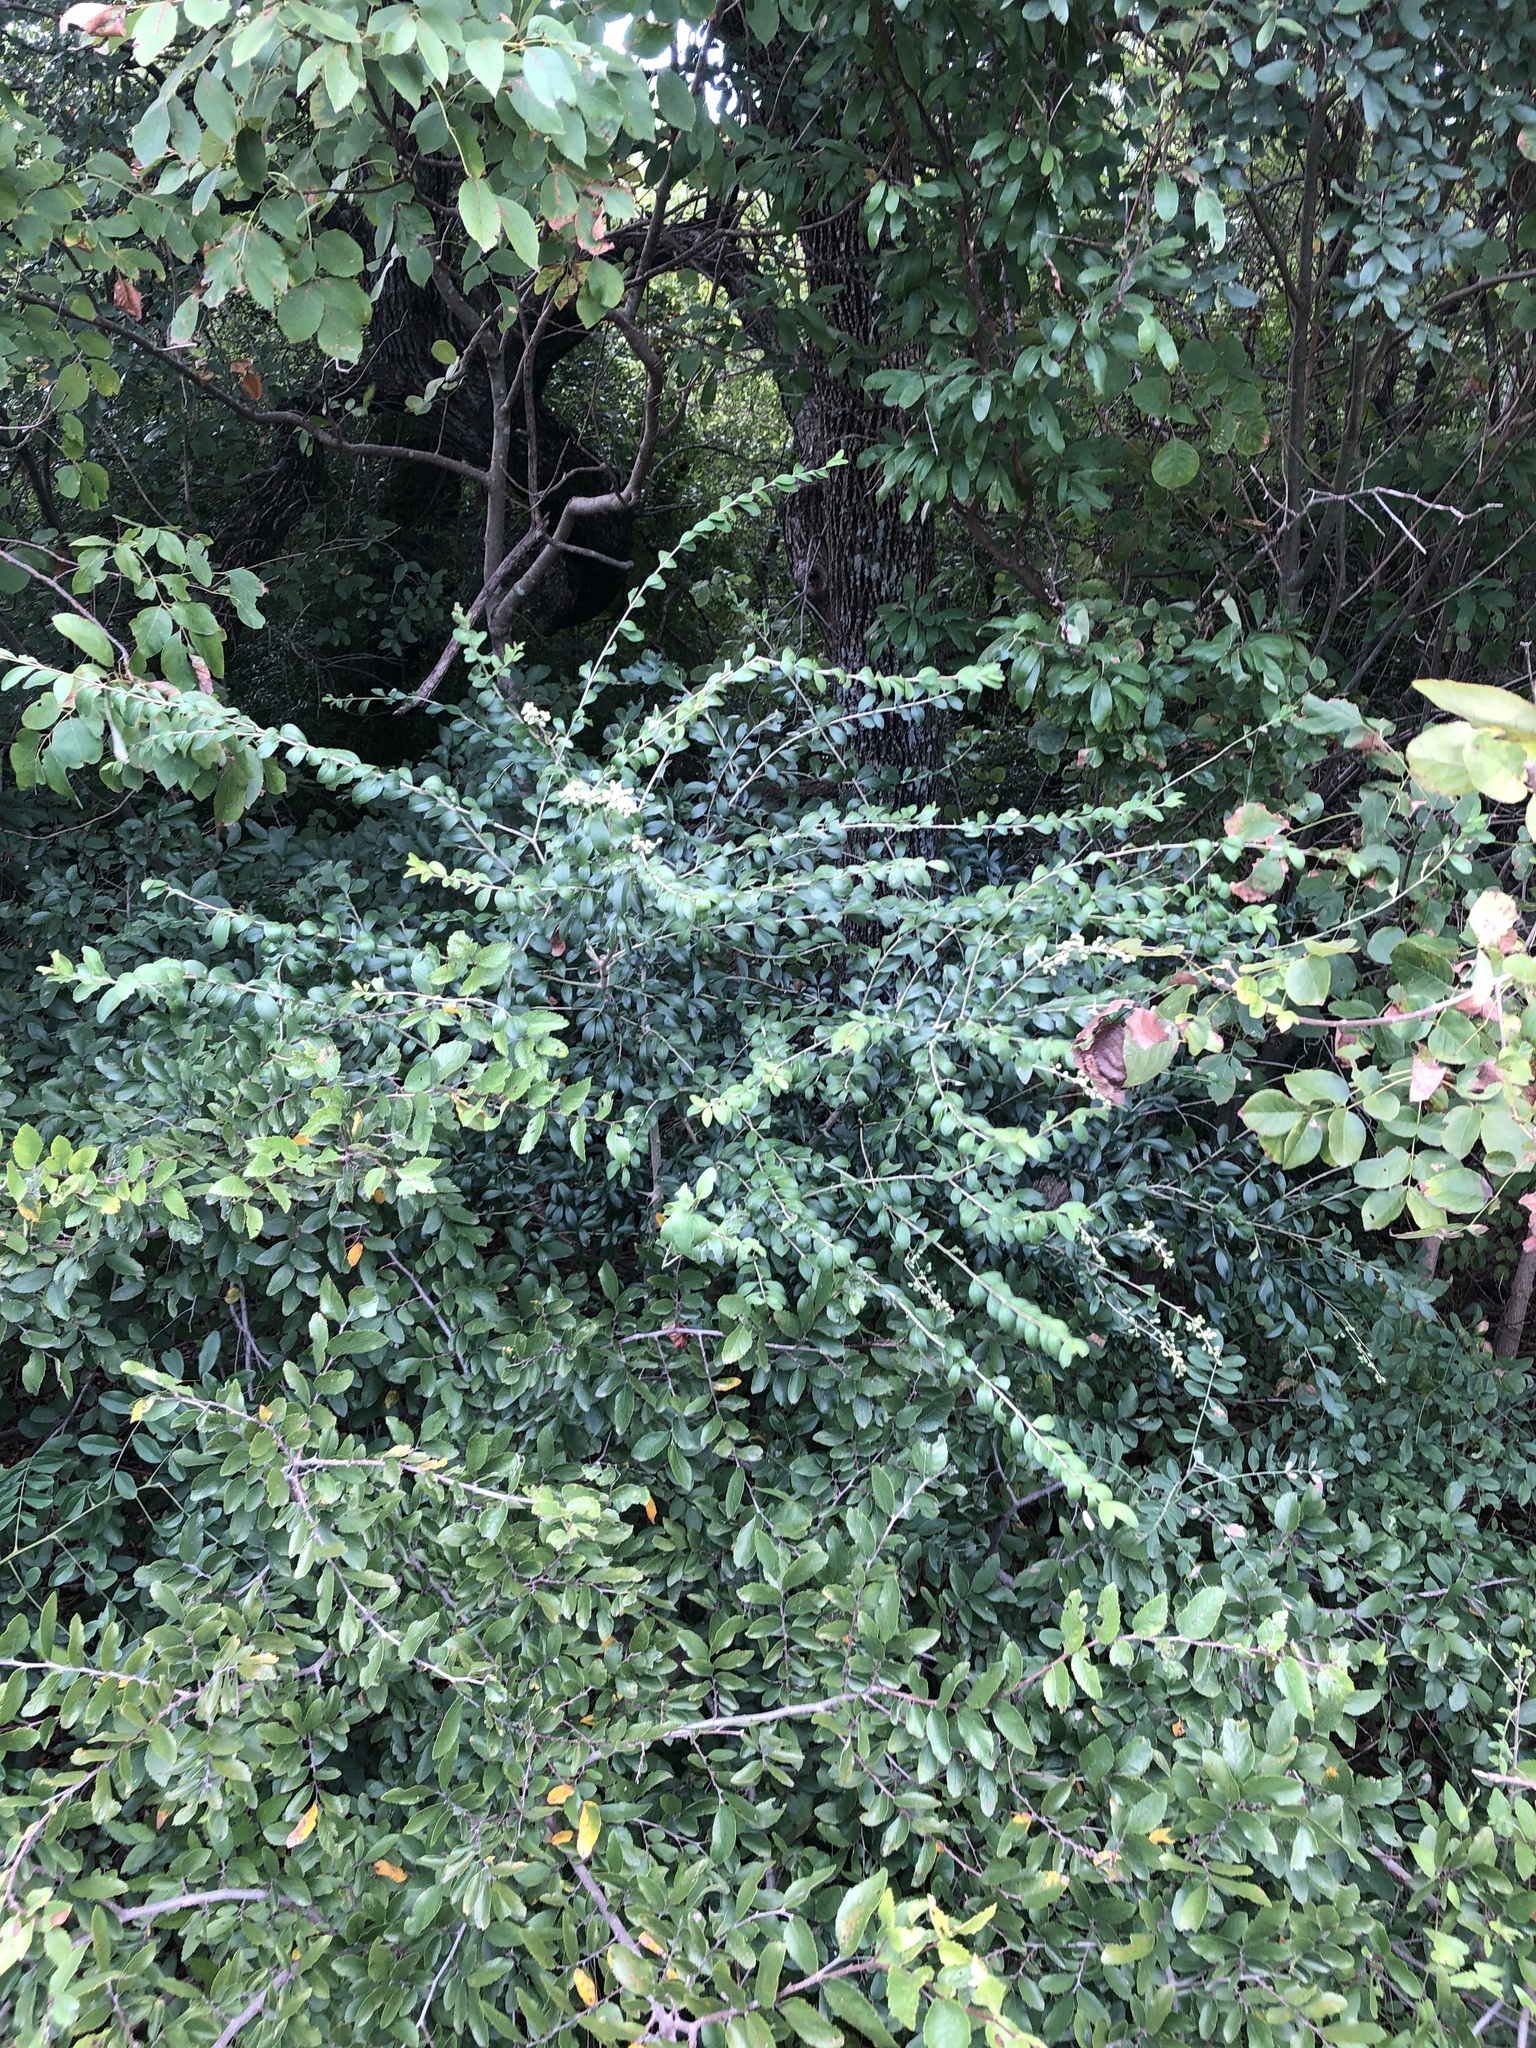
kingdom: Plantae
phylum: Tracheophyta
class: Magnoliopsida
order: Lamiales
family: Oleaceae
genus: Ligustrum
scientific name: Ligustrum quihoui
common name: Waxyleaf privet
